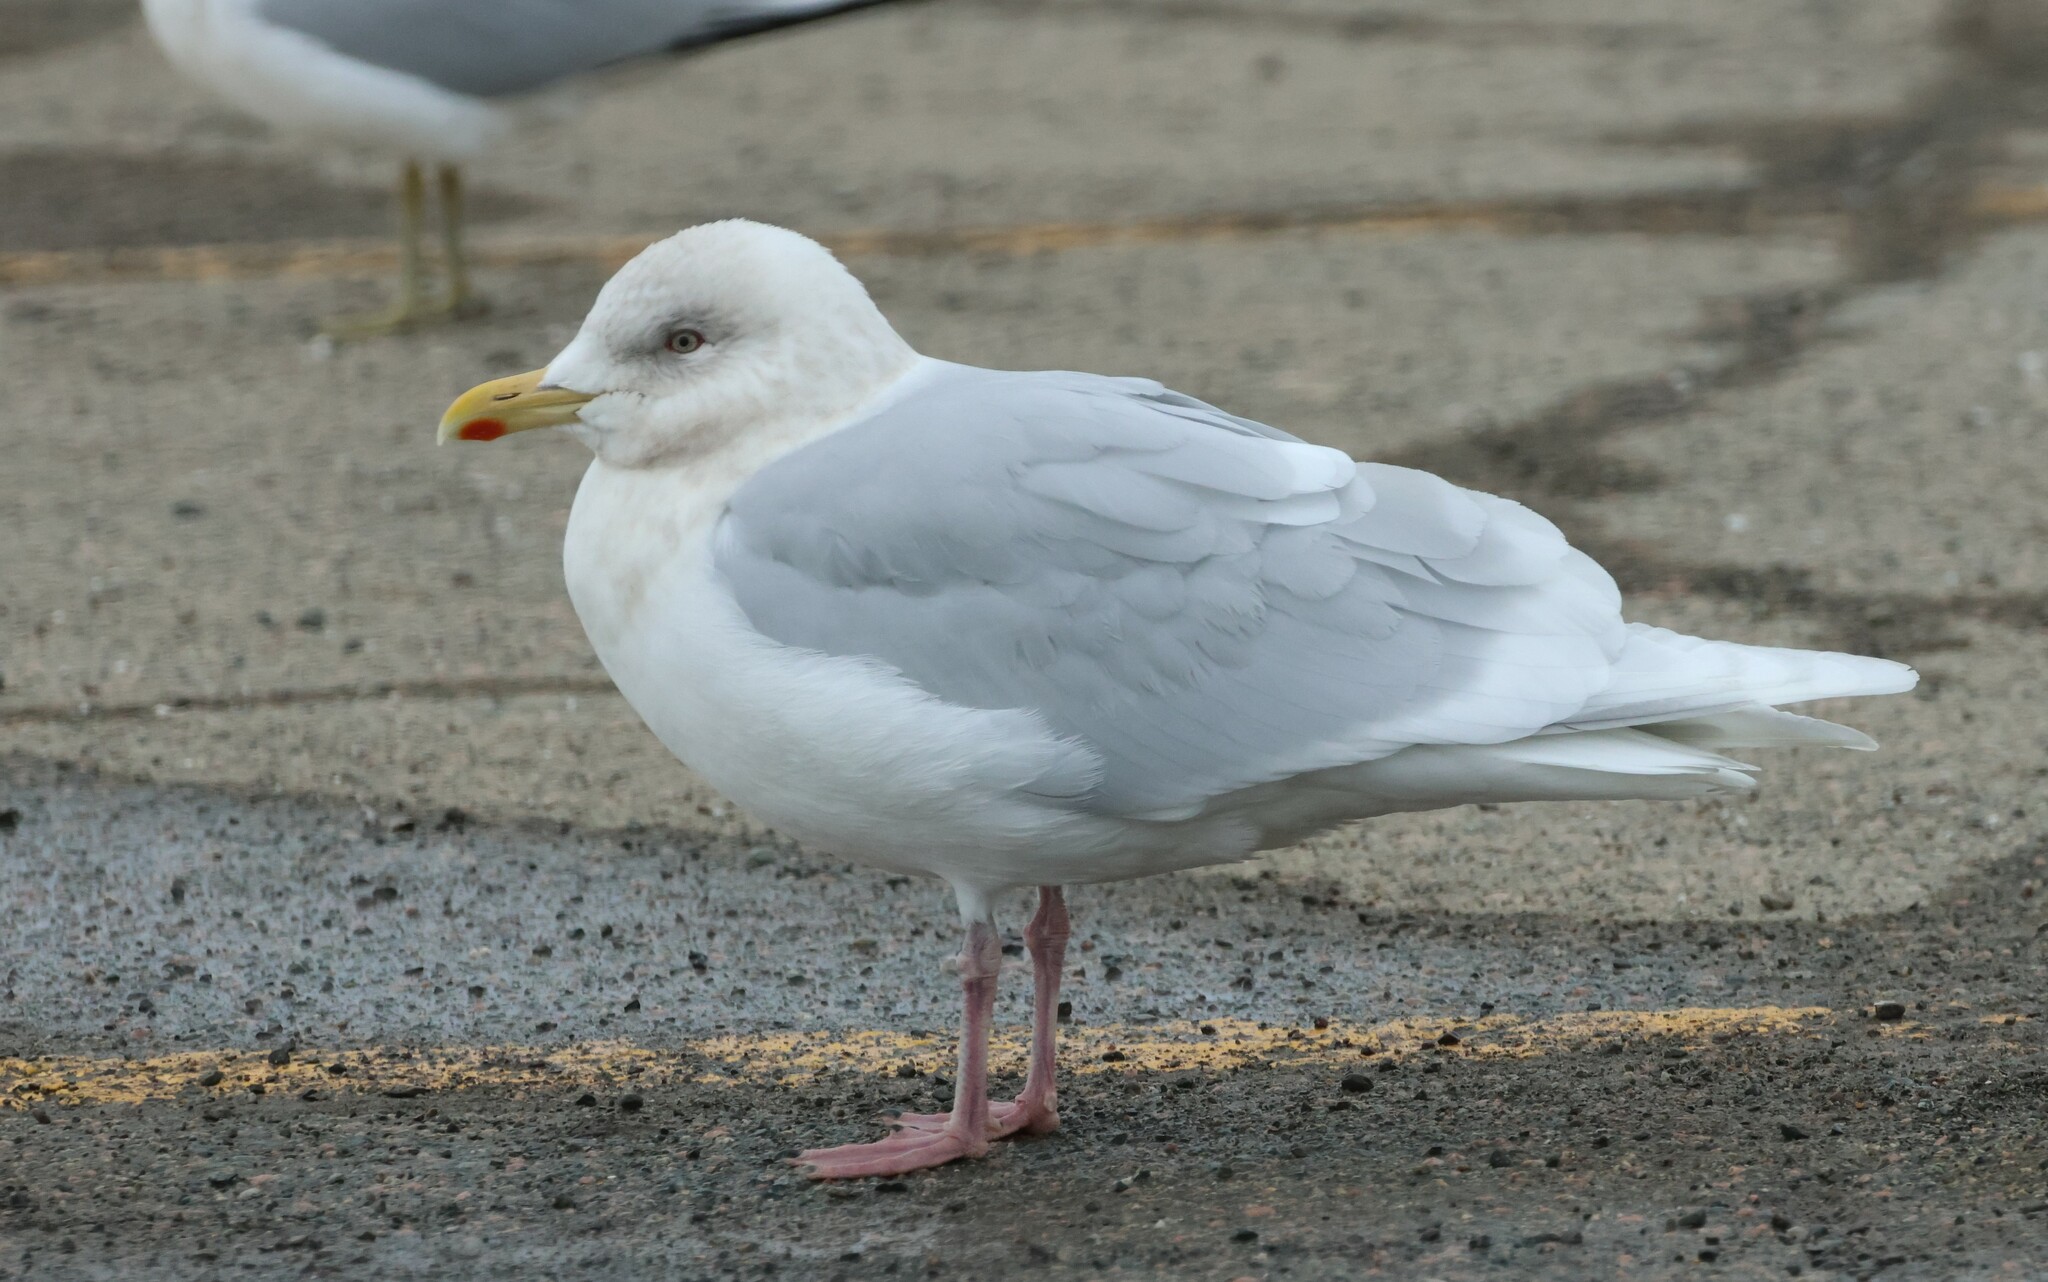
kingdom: Animalia
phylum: Chordata
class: Aves
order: Charadriiformes
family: Laridae
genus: Larus
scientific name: Larus glaucoides
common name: Iceland gull
